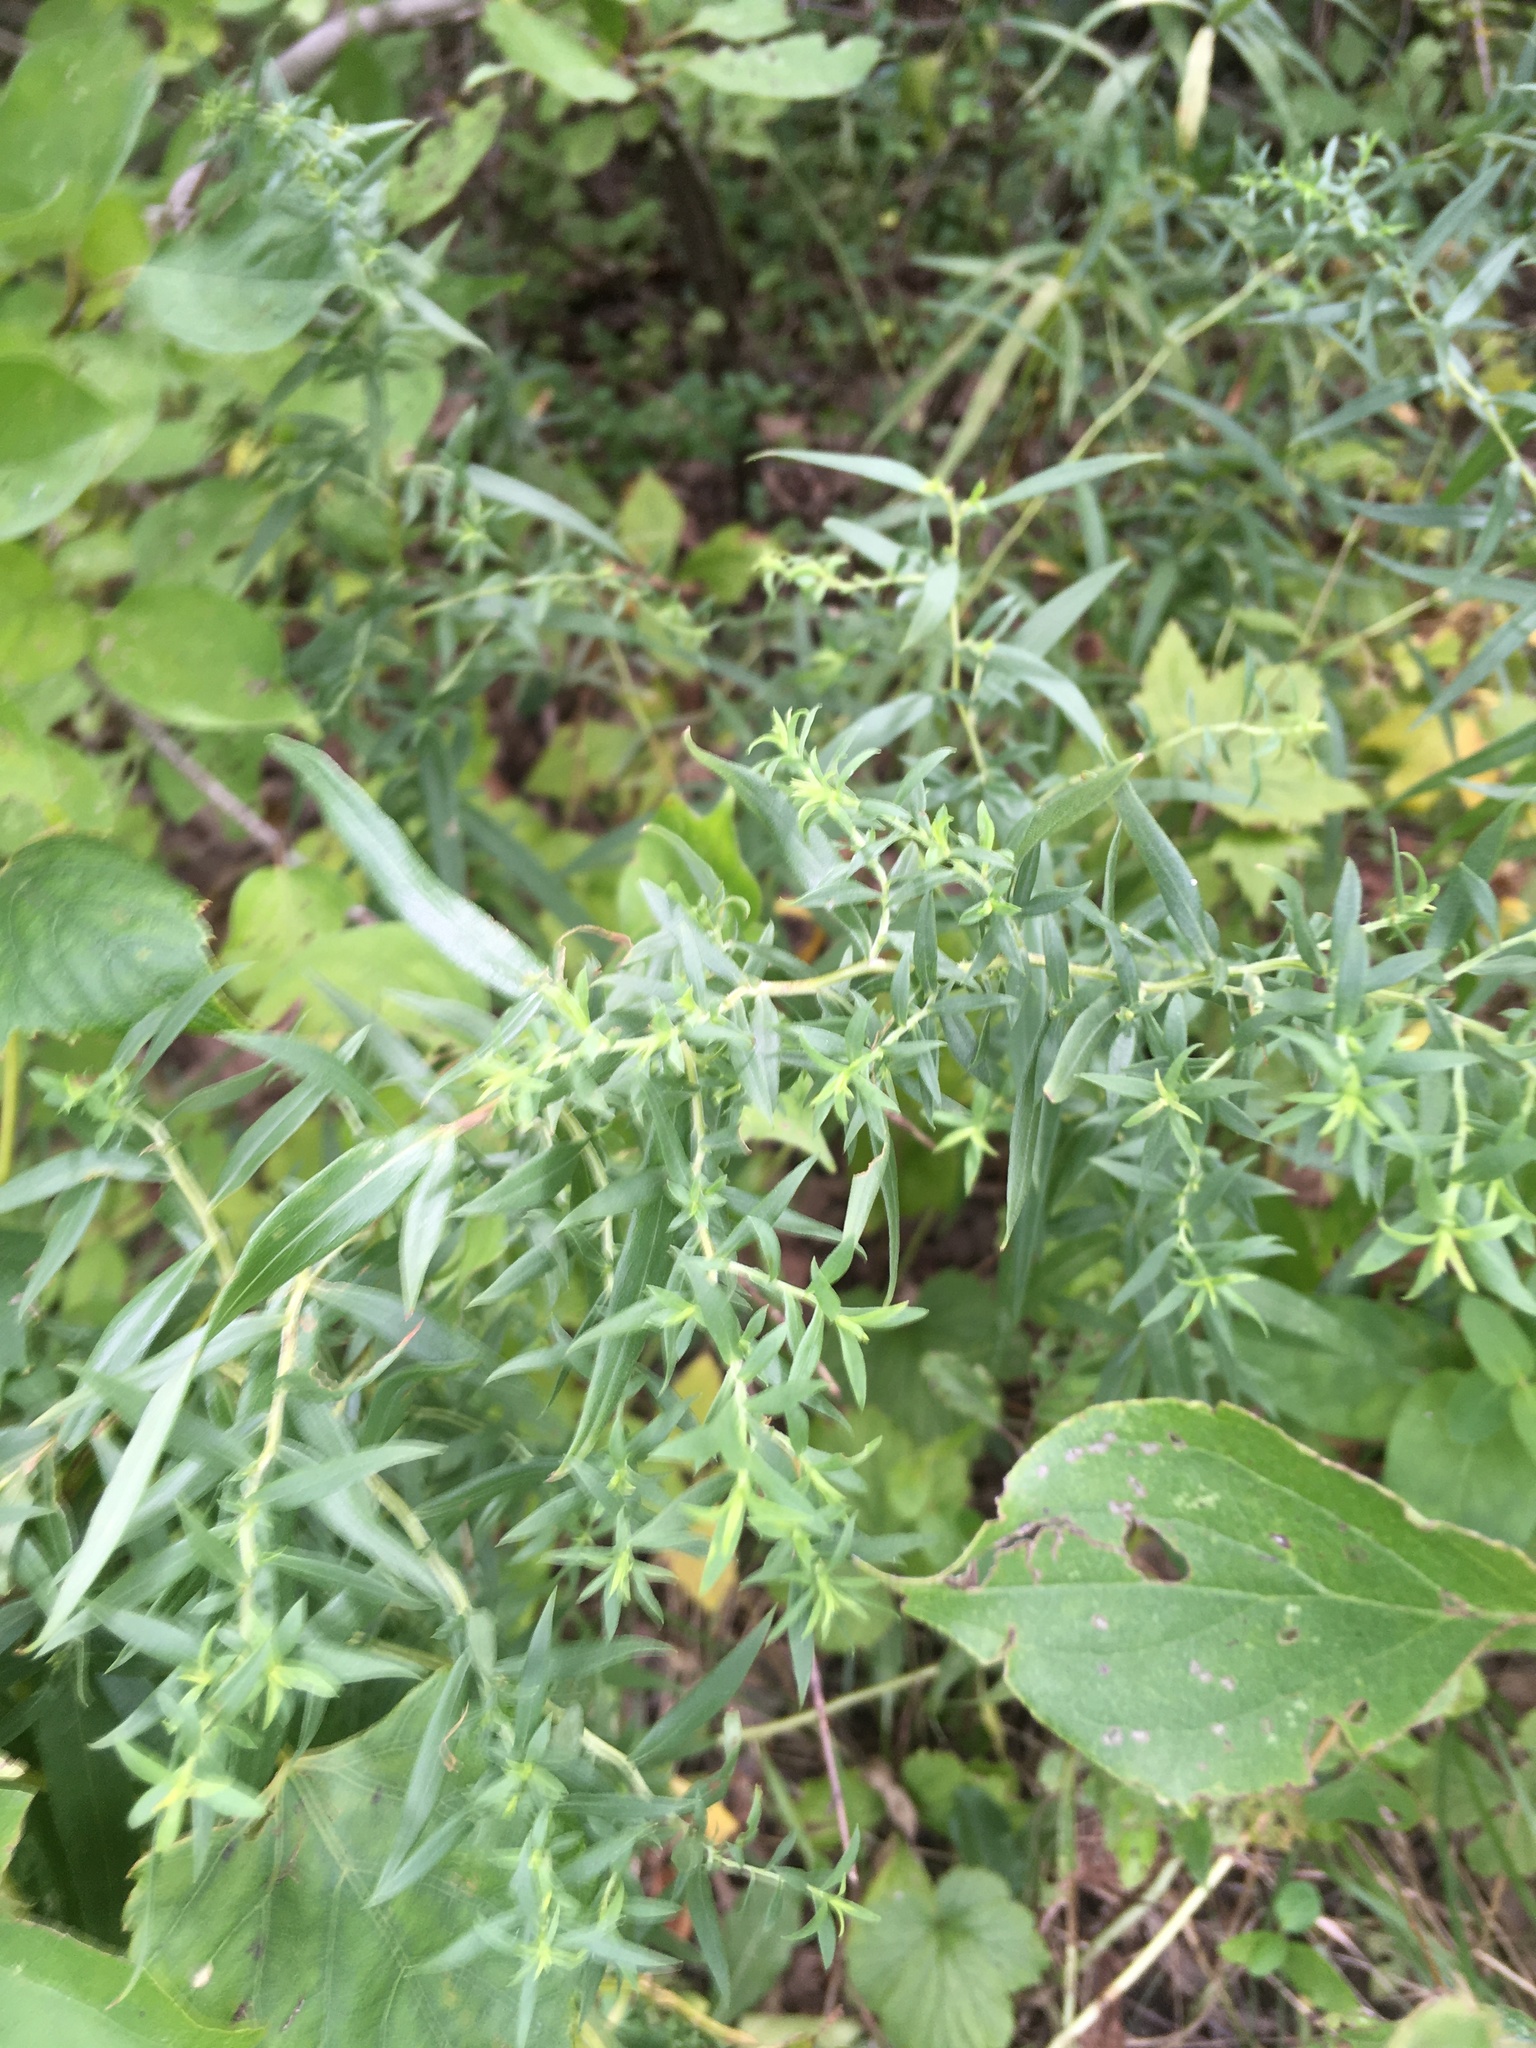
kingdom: Plantae
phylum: Tracheophyta
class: Magnoliopsida
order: Asterales
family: Asteraceae
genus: Symphyotrichum
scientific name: Symphyotrichum praealtum
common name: Willow aster
